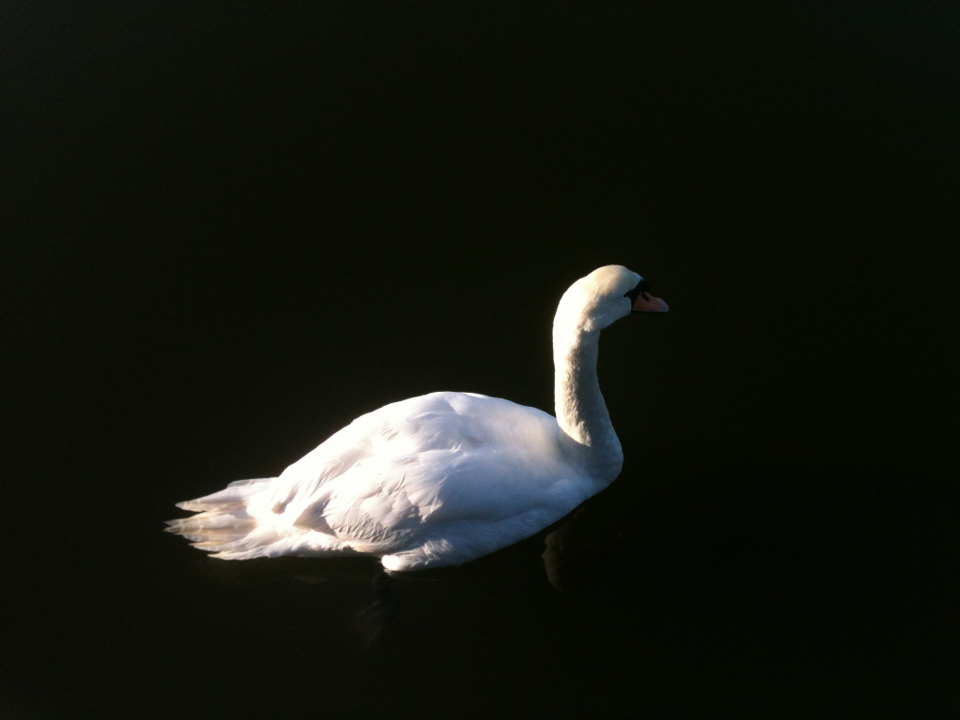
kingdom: Animalia
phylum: Chordata
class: Aves
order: Anseriformes
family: Anatidae
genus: Cygnus
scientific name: Cygnus olor
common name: Mute swan
